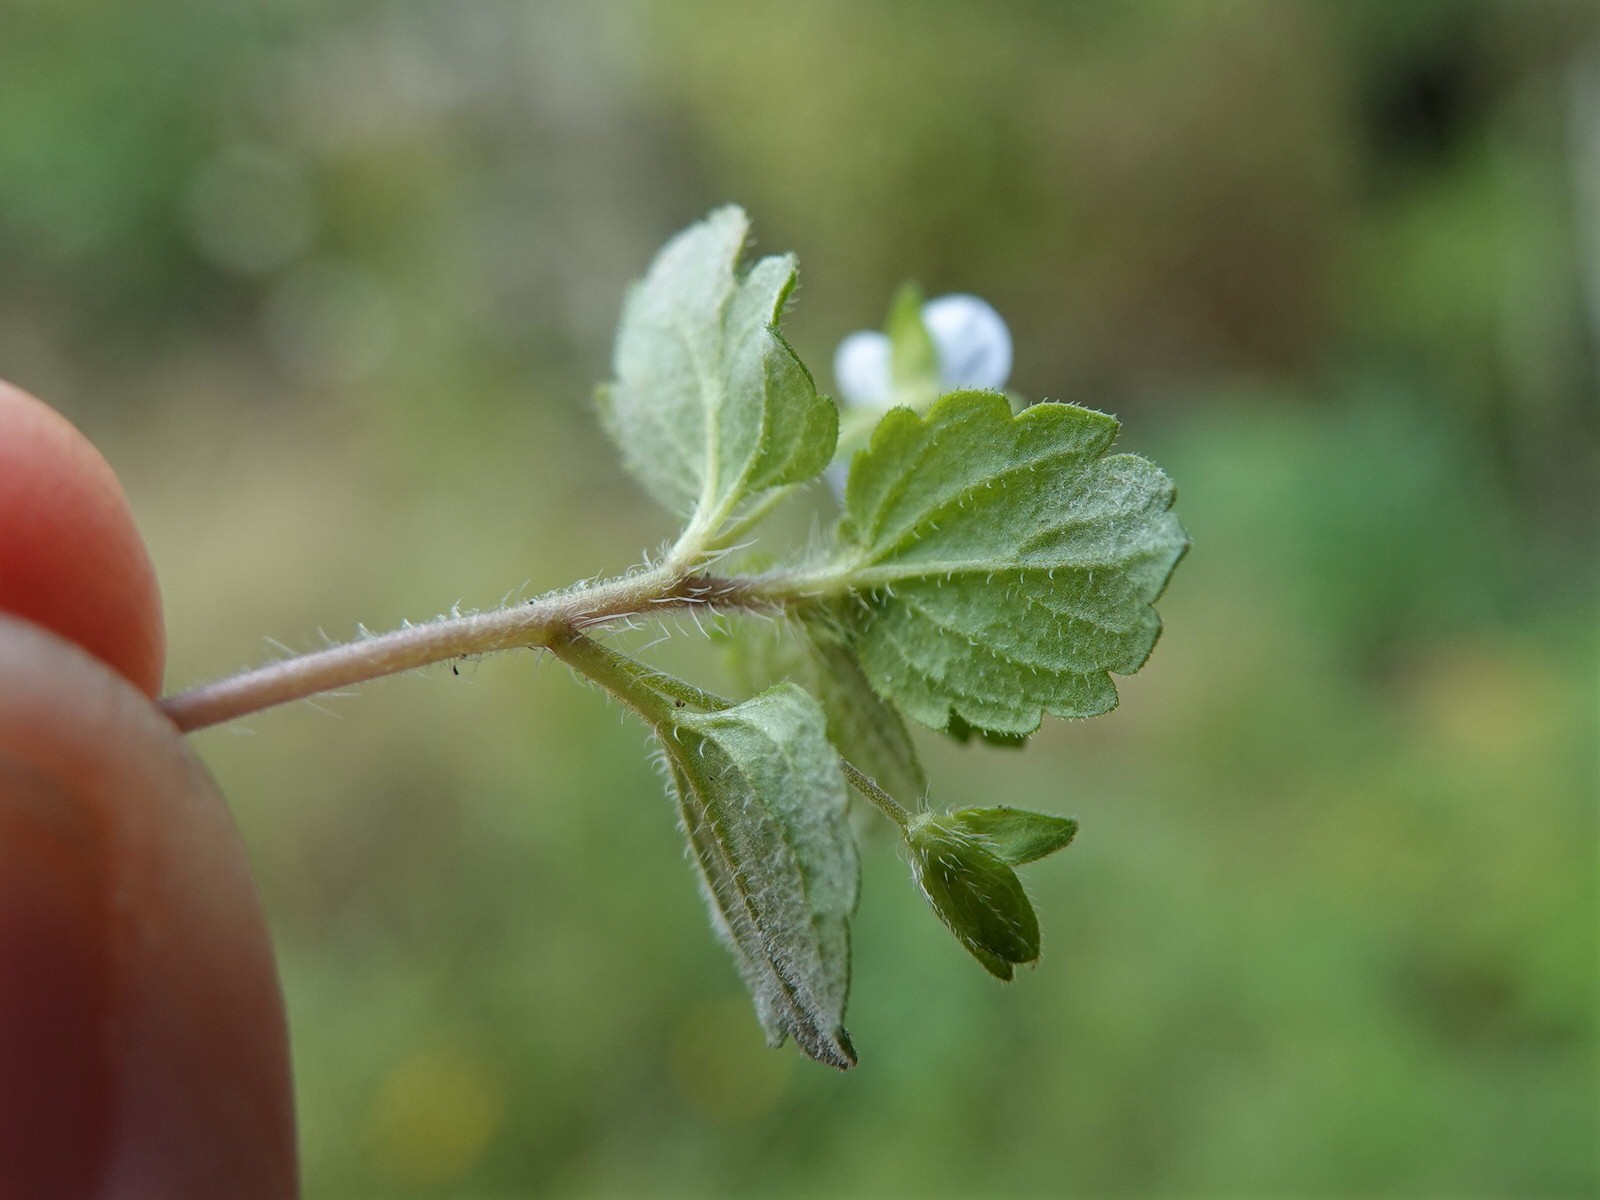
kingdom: Plantae
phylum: Tracheophyta
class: Magnoliopsida
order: Lamiales
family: Plantaginaceae
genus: Veronica
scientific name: Veronica persica
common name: Common field-speedwell
